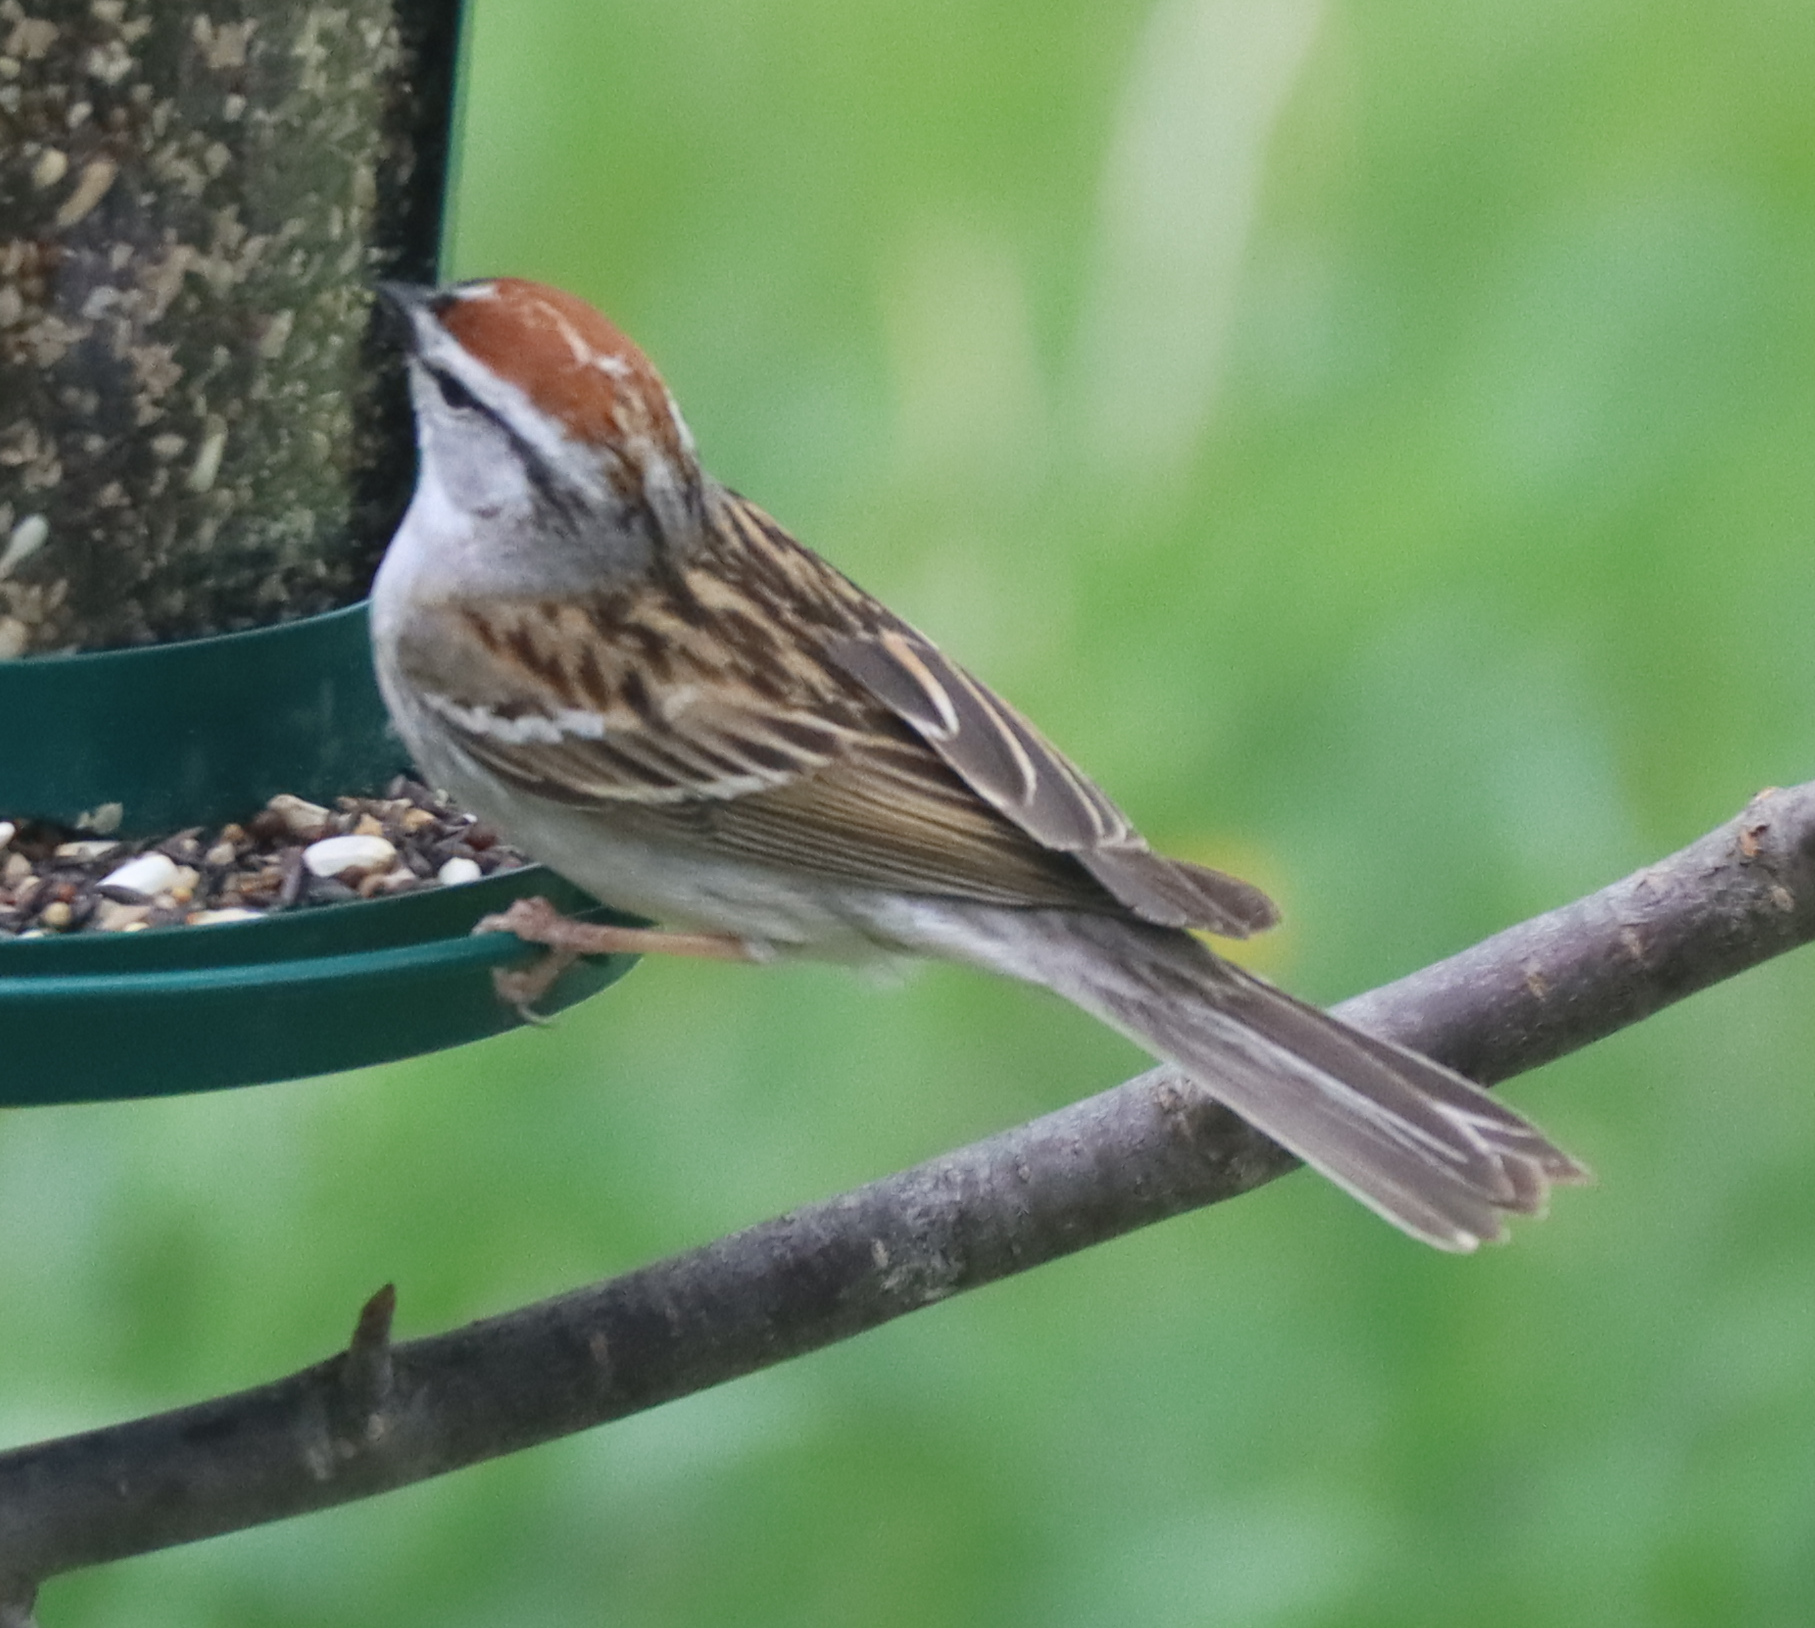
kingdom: Animalia
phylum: Chordata
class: Aves
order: Passeriformes
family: Passerellidae
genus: Spizella
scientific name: Spizella passerina
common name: Chipping sparrow
